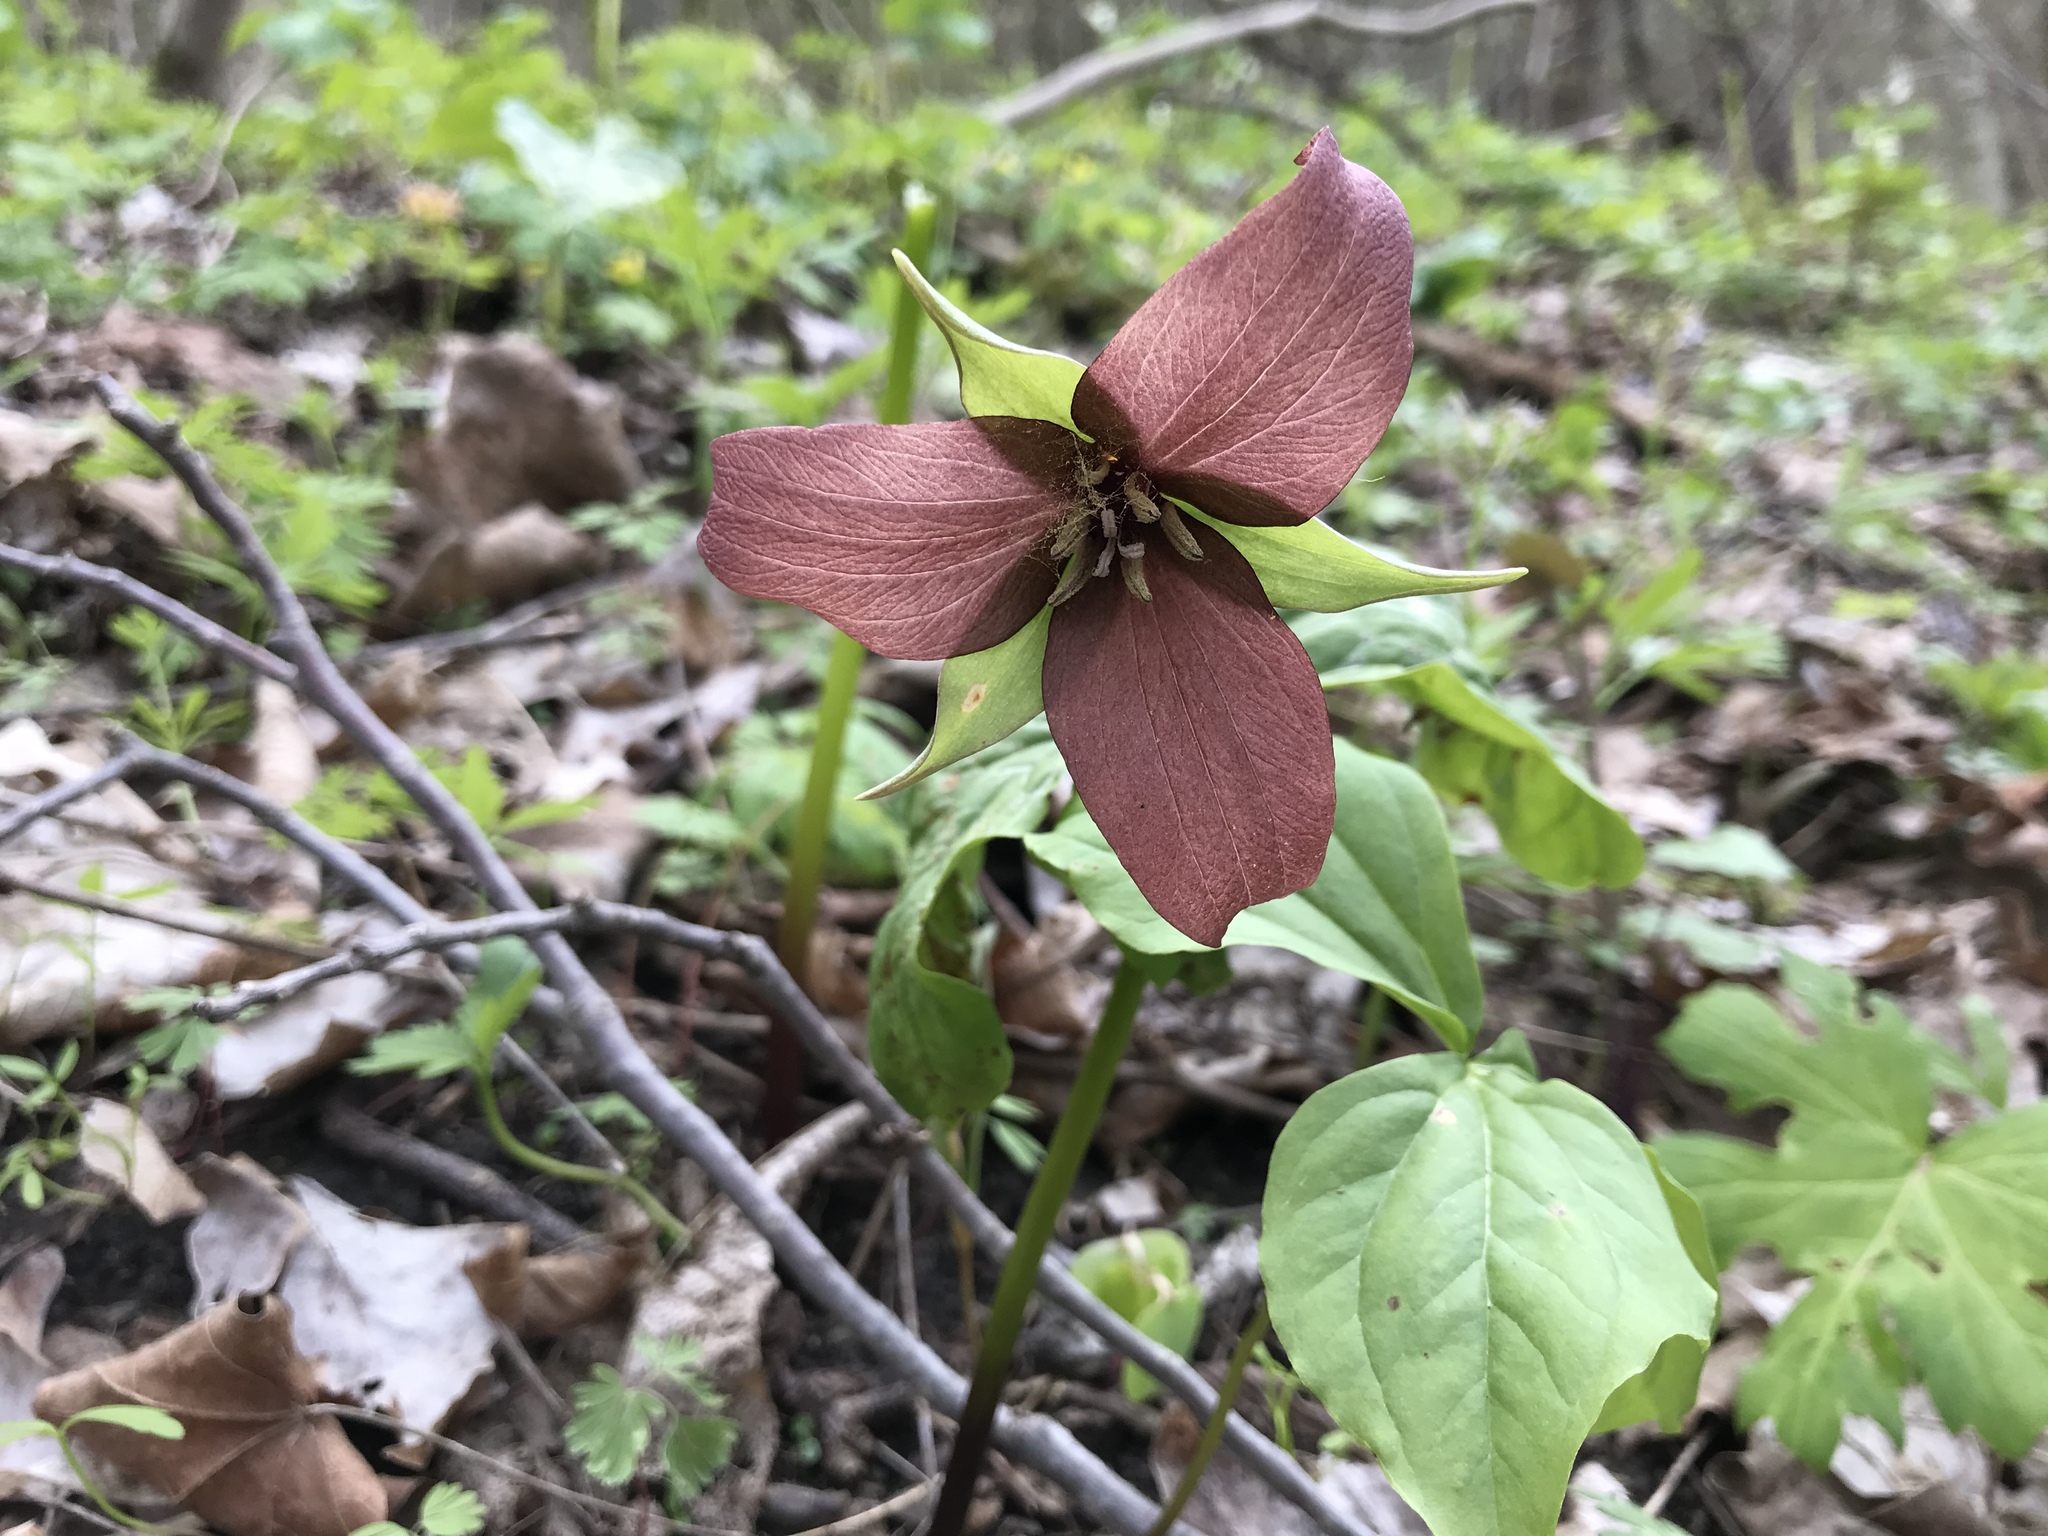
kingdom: Plantae
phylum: Tracheophyta
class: Liliopsida
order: Liliales
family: Melanthiaceae
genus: Trillium
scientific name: Trillium erectum
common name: Purple trillium
